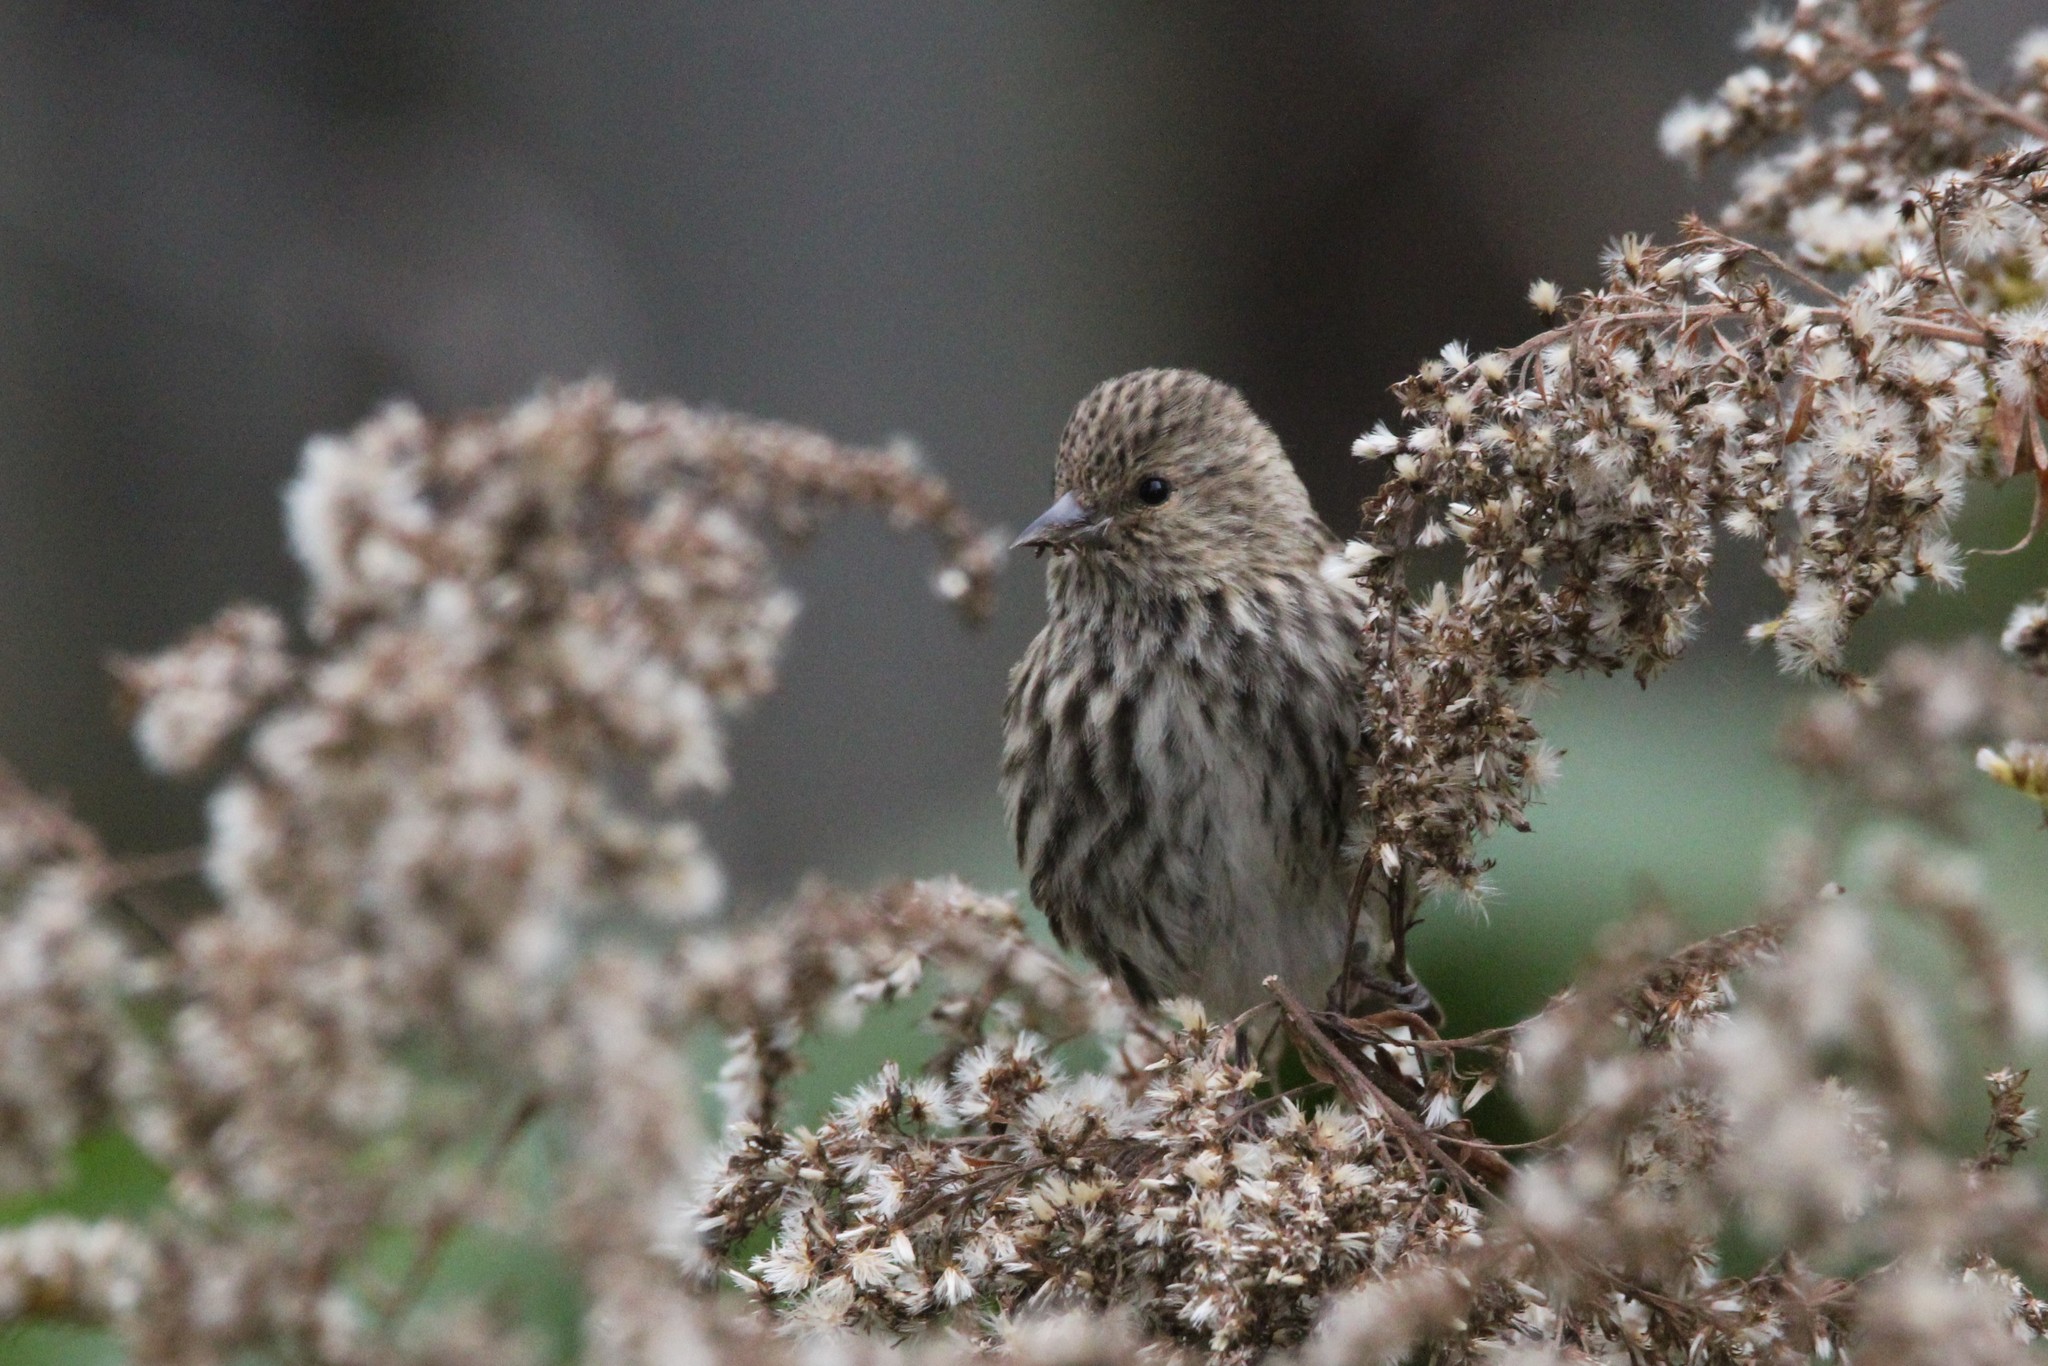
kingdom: Animalia
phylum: Chordata
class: Aves
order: Passeriformes
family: Fringillidae
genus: Spinus
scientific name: Spinus pinus
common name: Pine siskin
